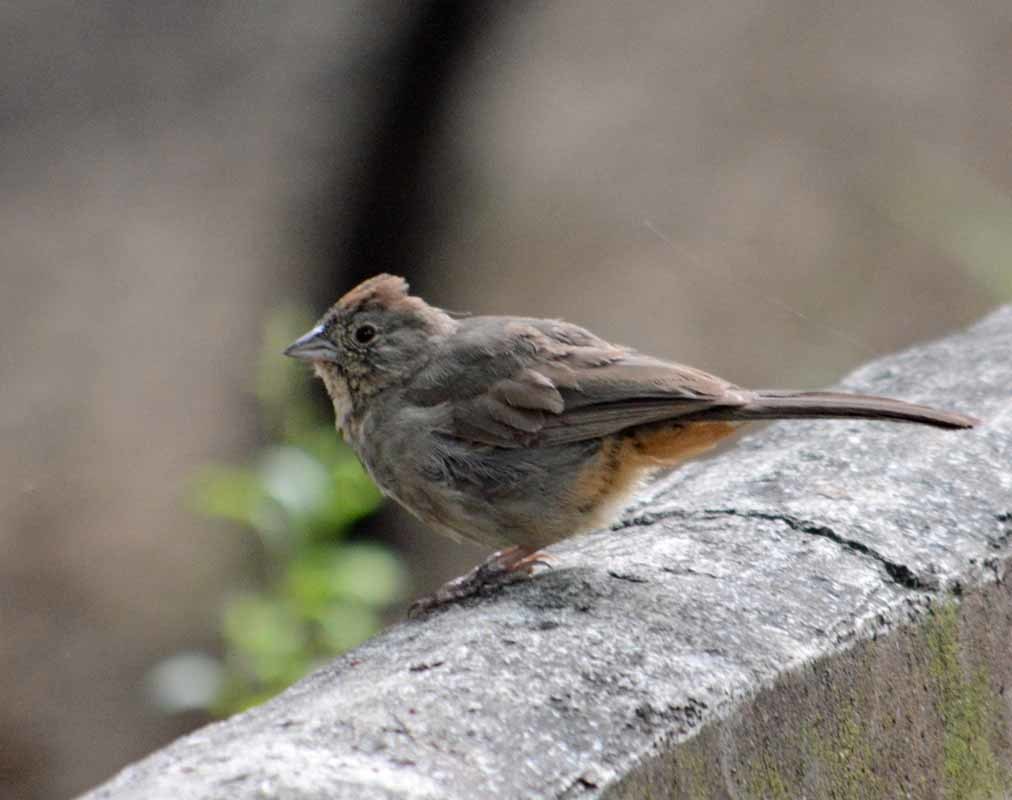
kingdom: Animalia
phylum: Chordata
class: Aves
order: Passeriformes
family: Passerellidae
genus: Melozone
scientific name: Melozone fusca
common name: Canyon towhee
